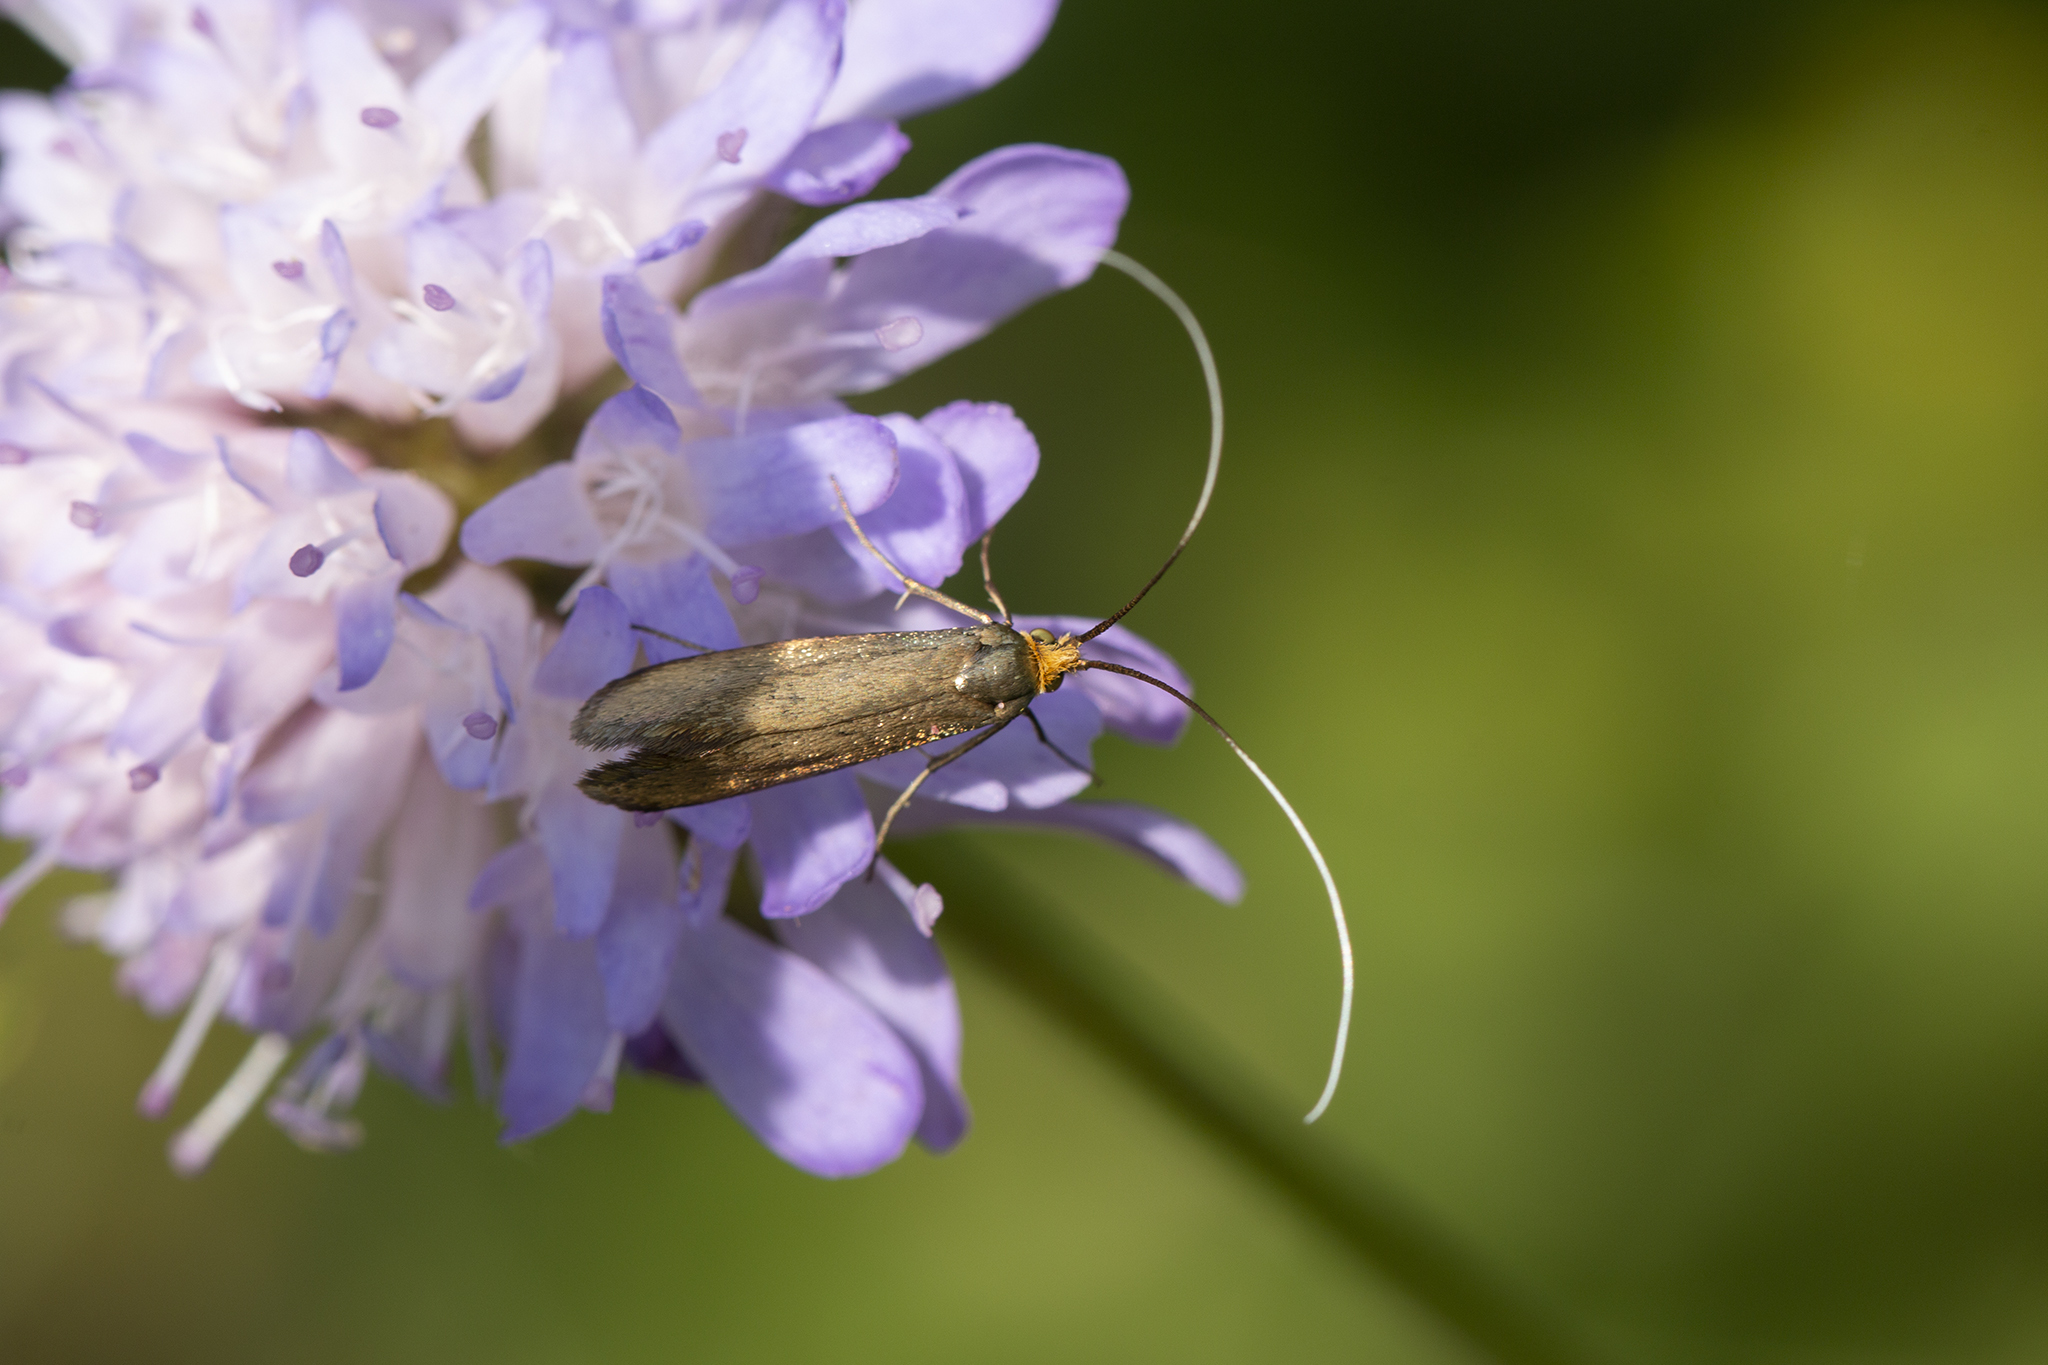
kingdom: Animalia
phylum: Arthropoda
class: Insecta
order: Lepidoptera
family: Adelidae
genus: Nemophora
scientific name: Nemophora metallica
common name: Brassy long-horn
